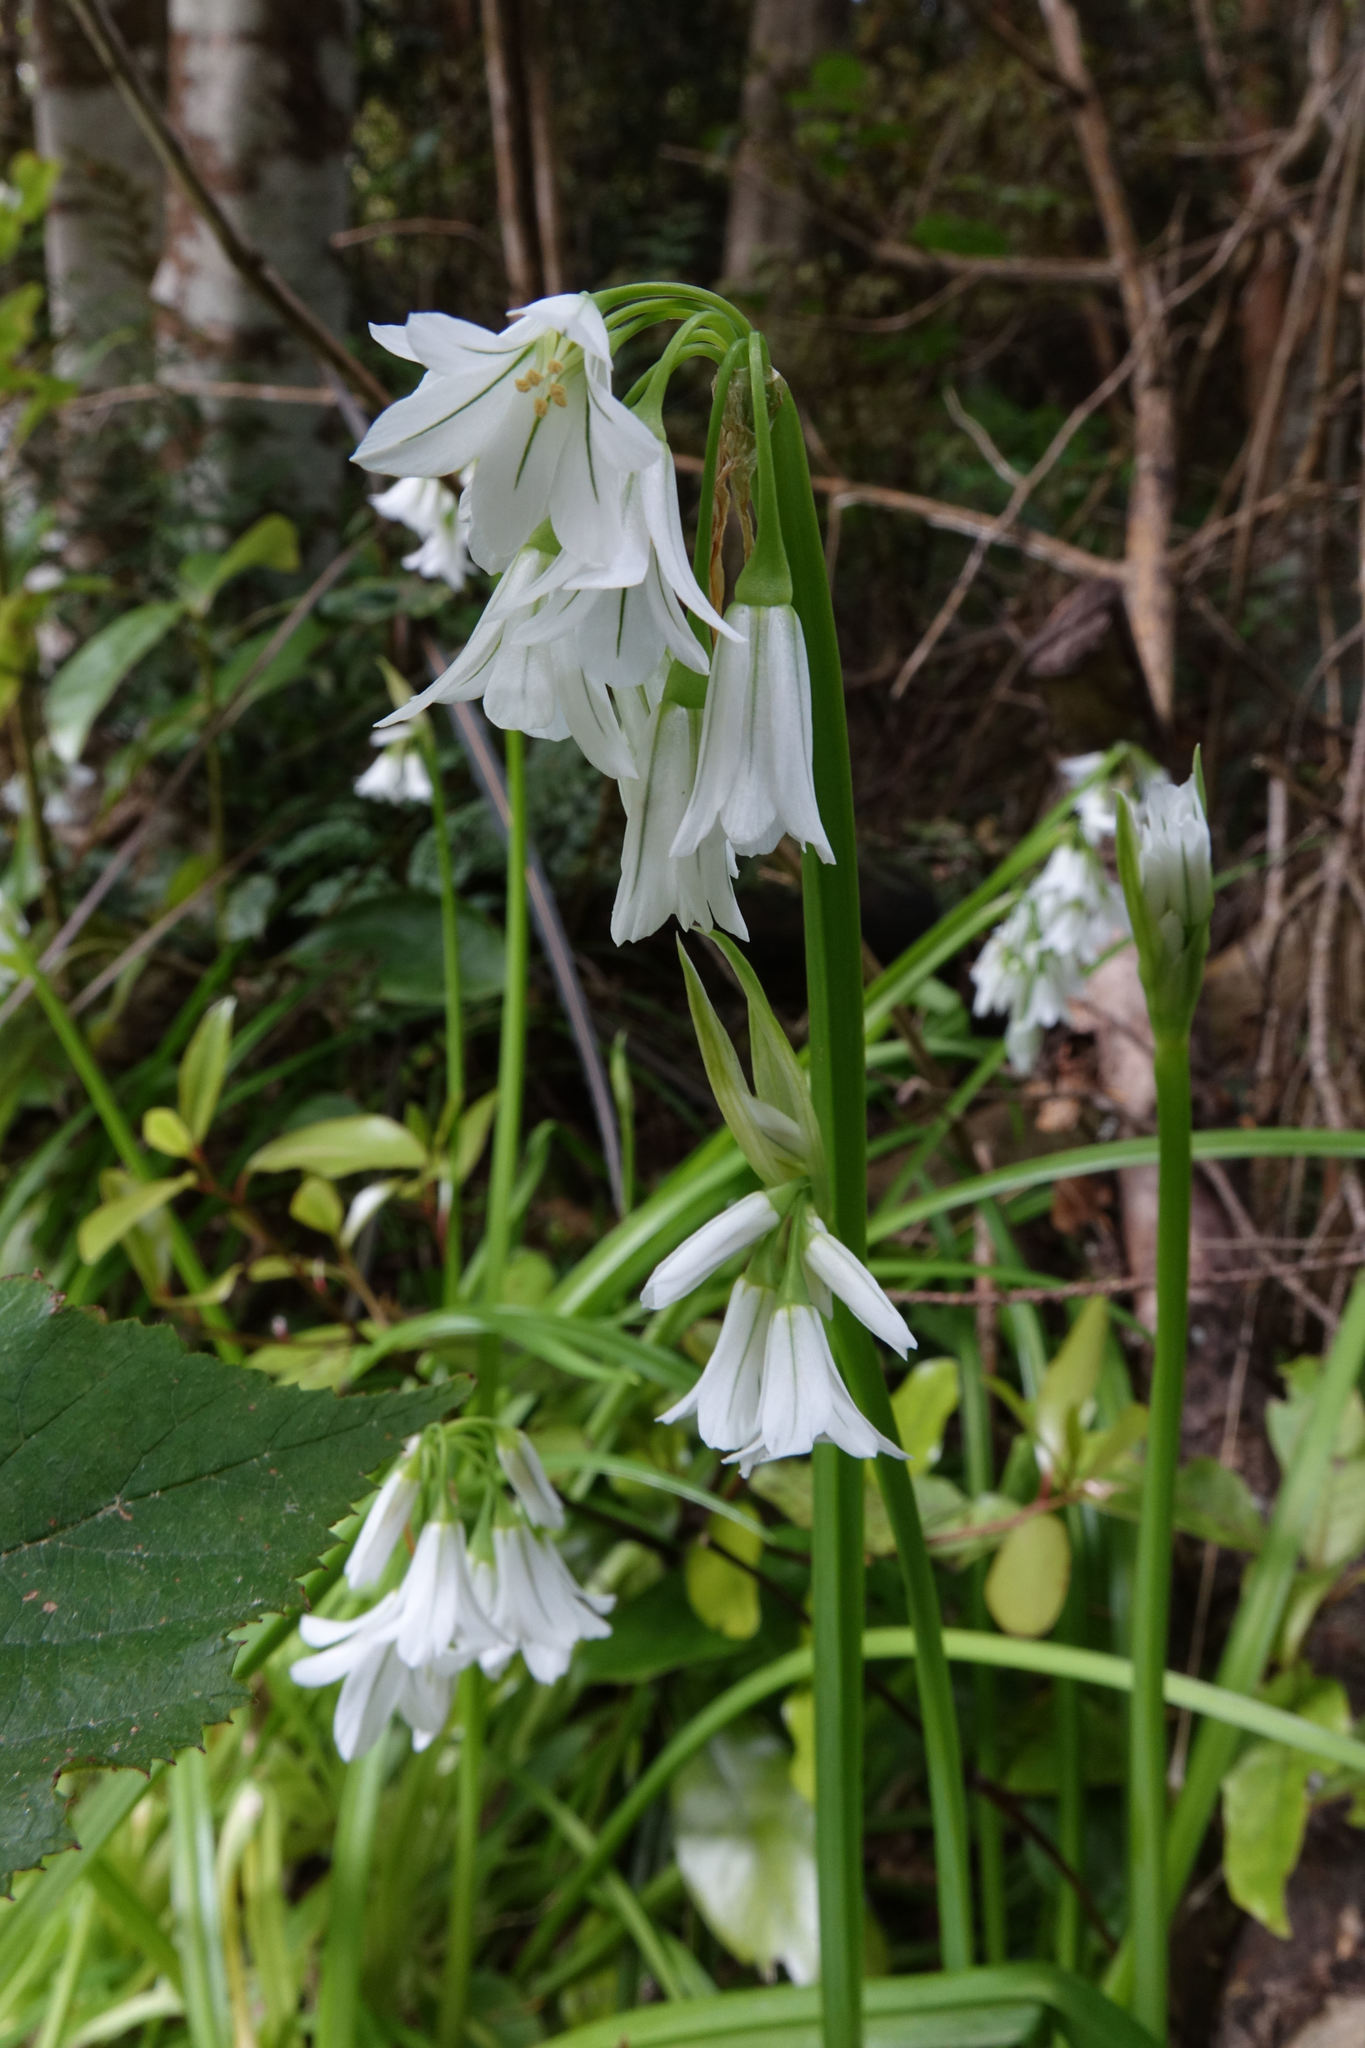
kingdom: Plantae
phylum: Tracheophyta
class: Liliopsida
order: Asparagales
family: Amaryllidaceae
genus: Allium
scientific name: Allium triquetrum
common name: Three-cornered garlic
